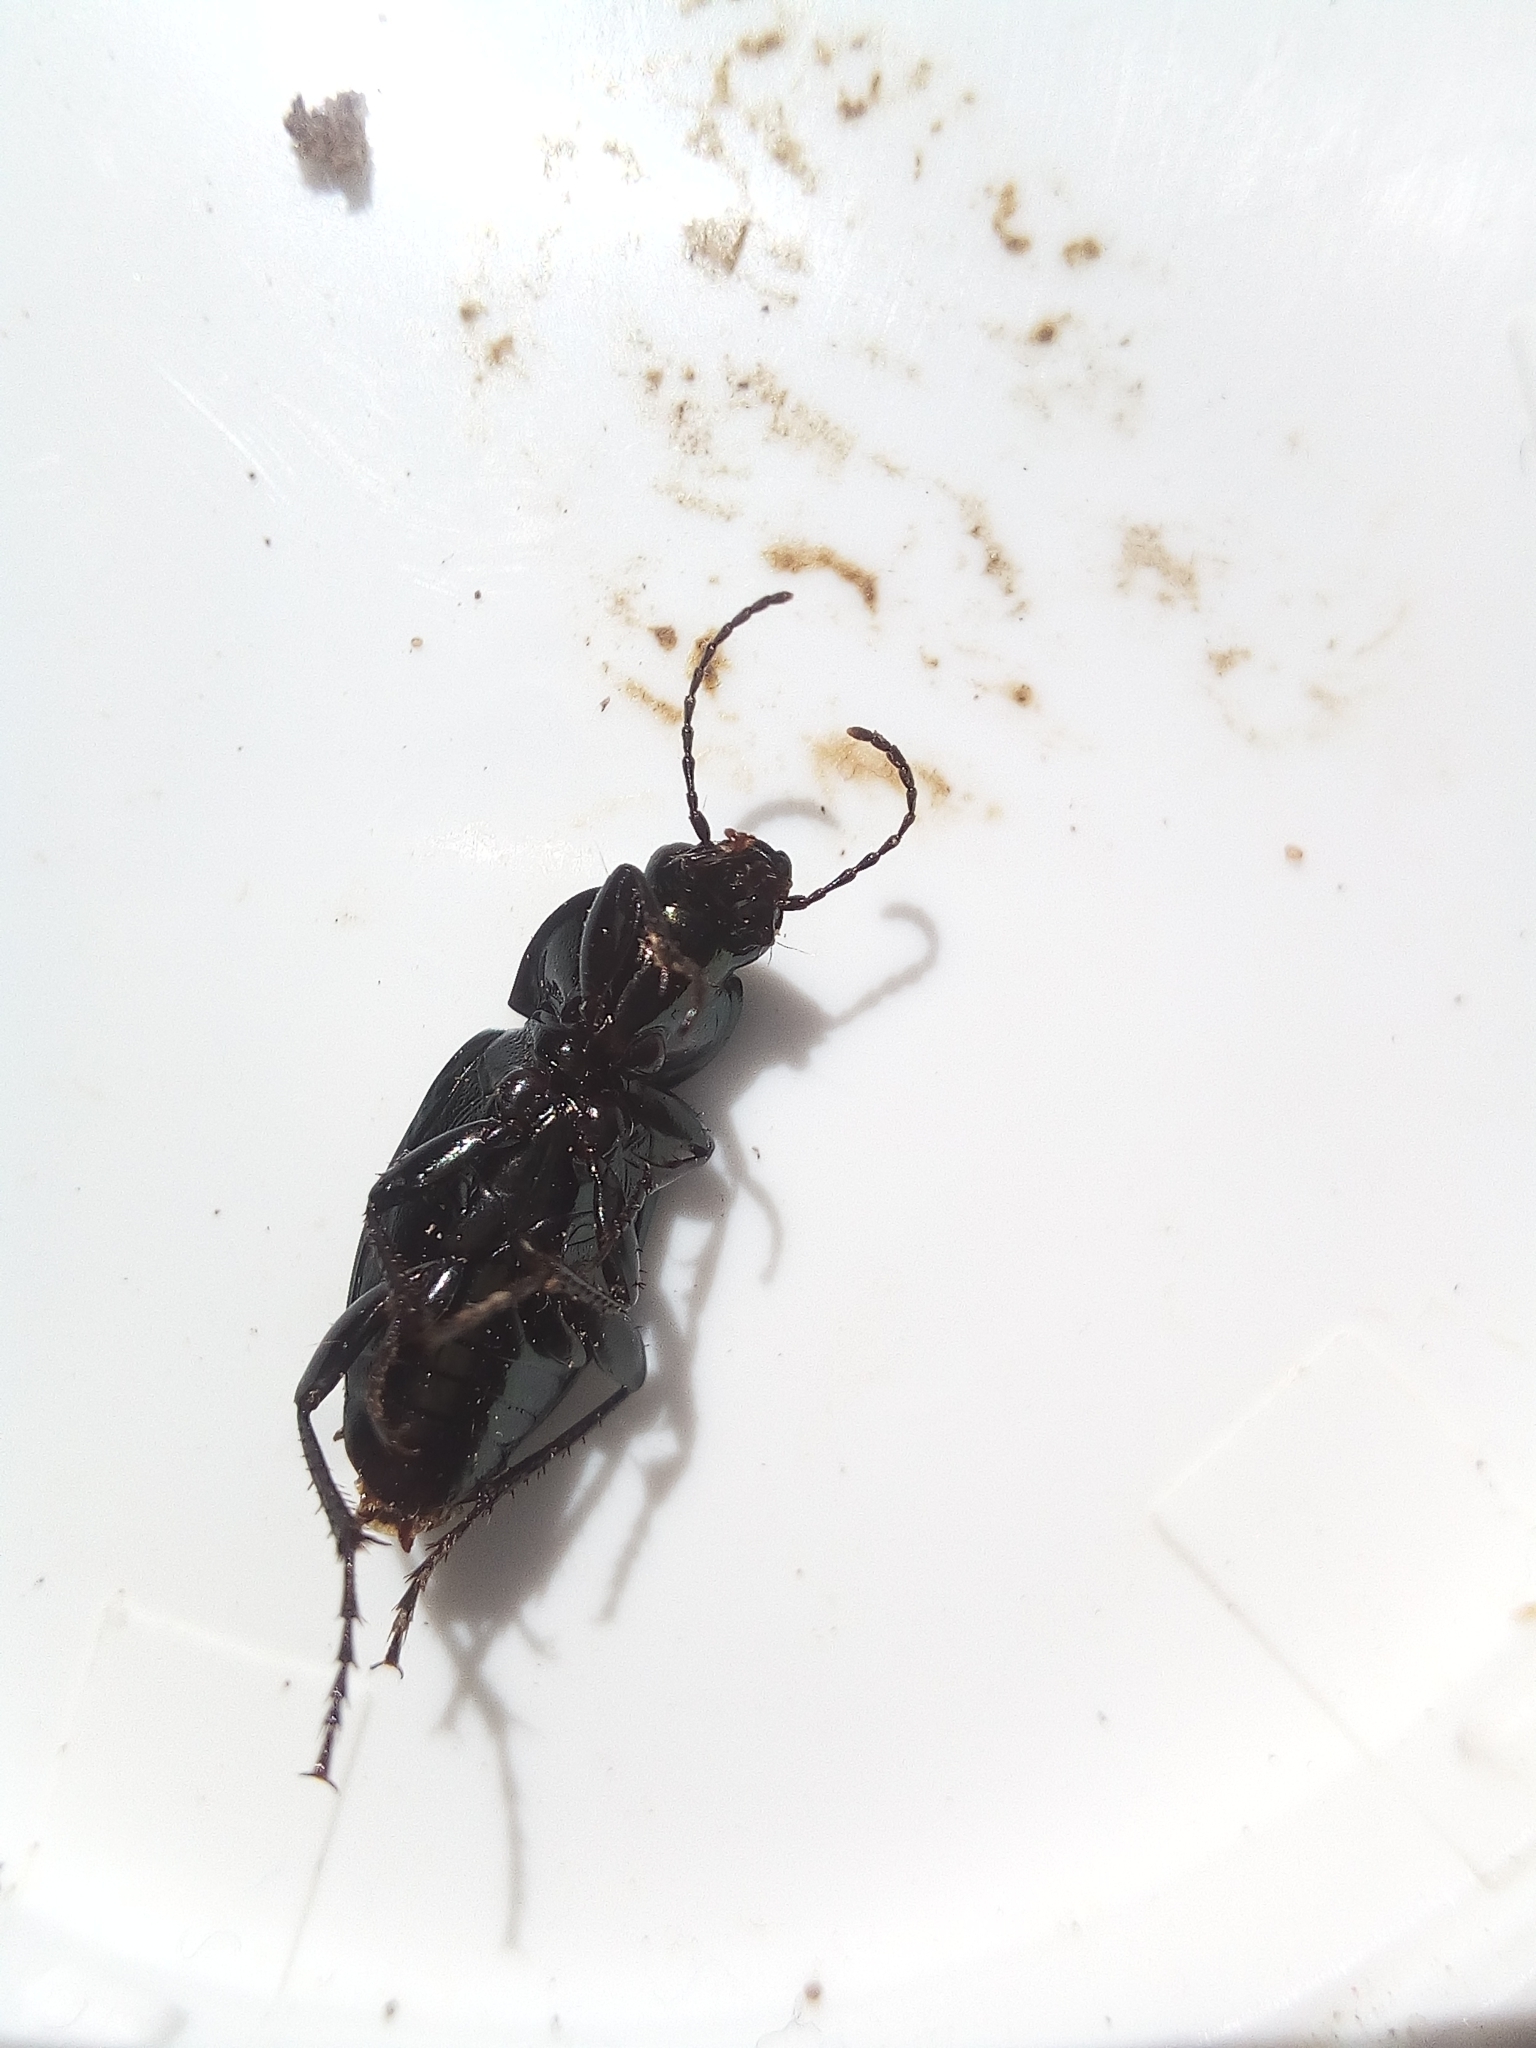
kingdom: Animalia
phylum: Arthropoda
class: Insecta
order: Coleoptera
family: Carabidae
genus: Poecilus
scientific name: Poecilus lepidus
